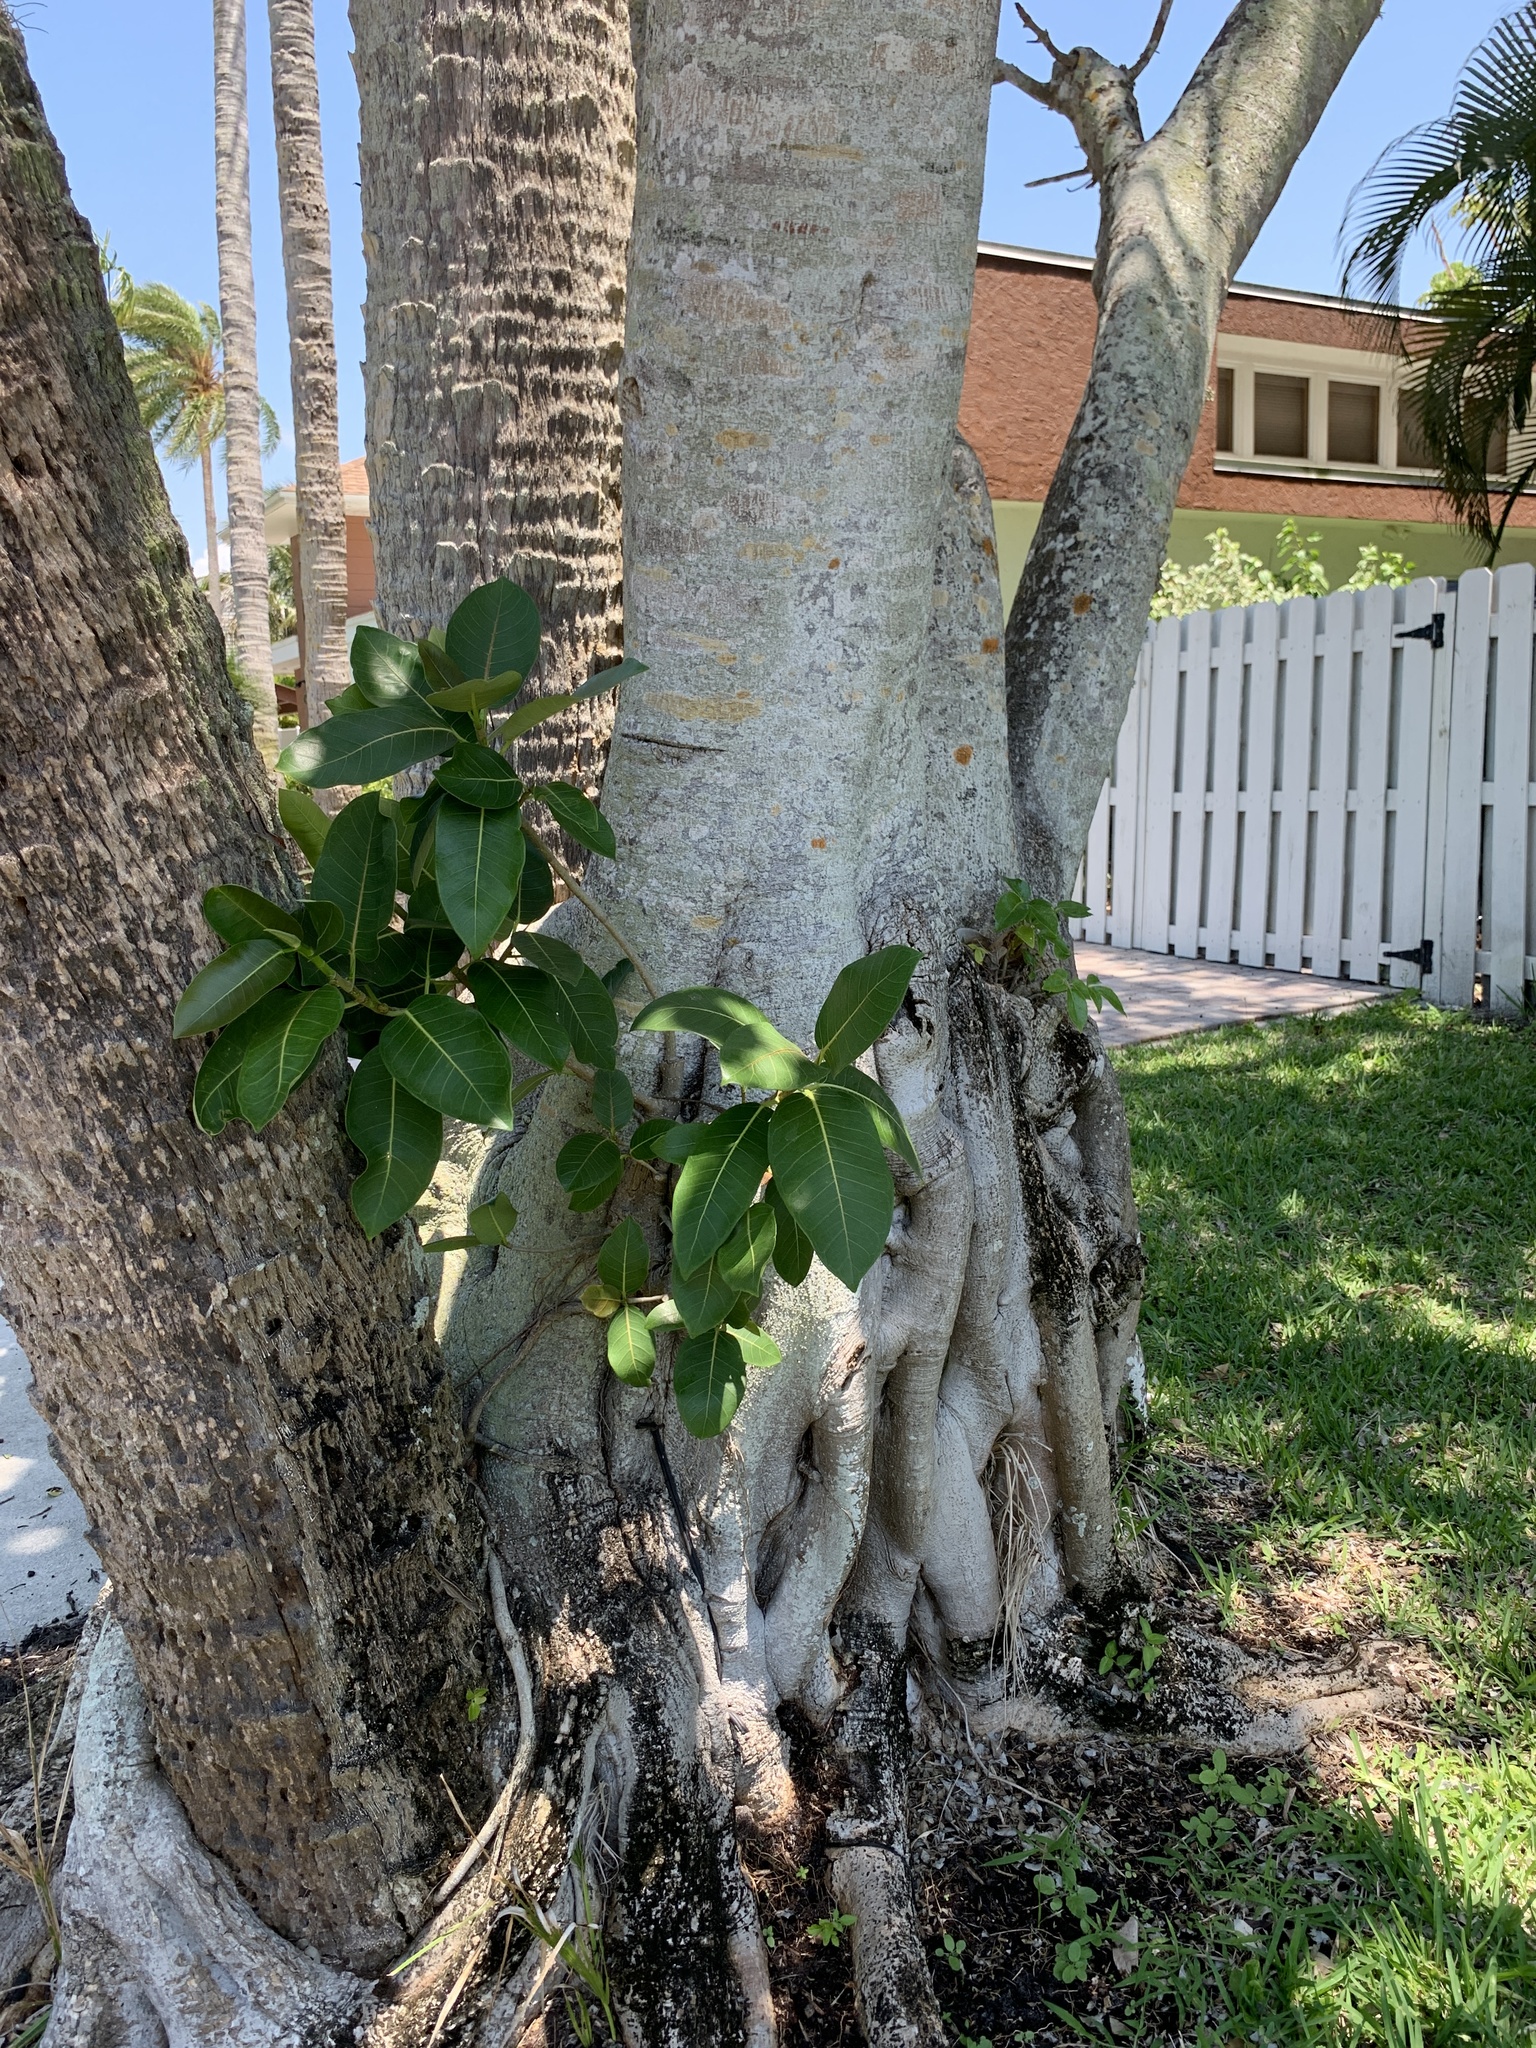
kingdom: Plantae
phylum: Tracheophyta
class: Magnoliopsida
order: Rosales
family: Moraceae
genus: Ficus
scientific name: Ficus aurea
